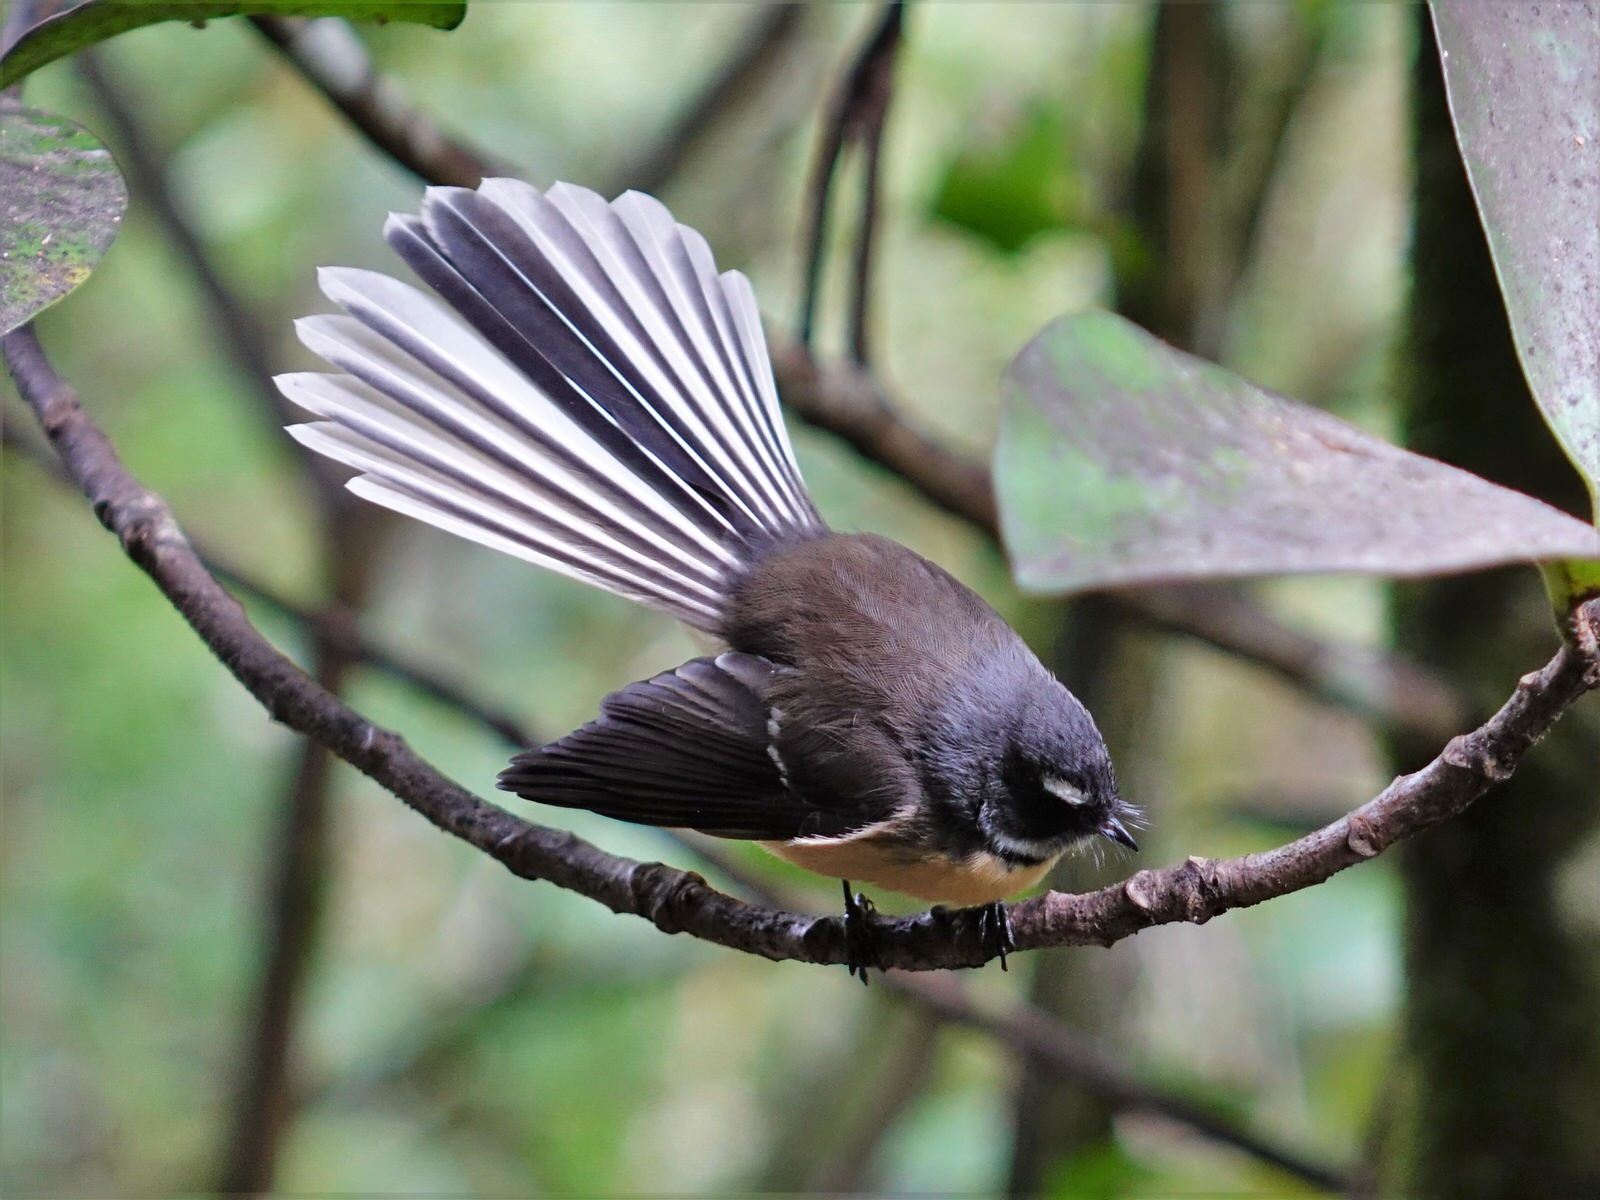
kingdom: Animalia
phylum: Chordata
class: Aves
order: Passeriformes
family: Rhipiduridae
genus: Rhipidura
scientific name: Rhipidura fuliginosa
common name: New zealand fantail
